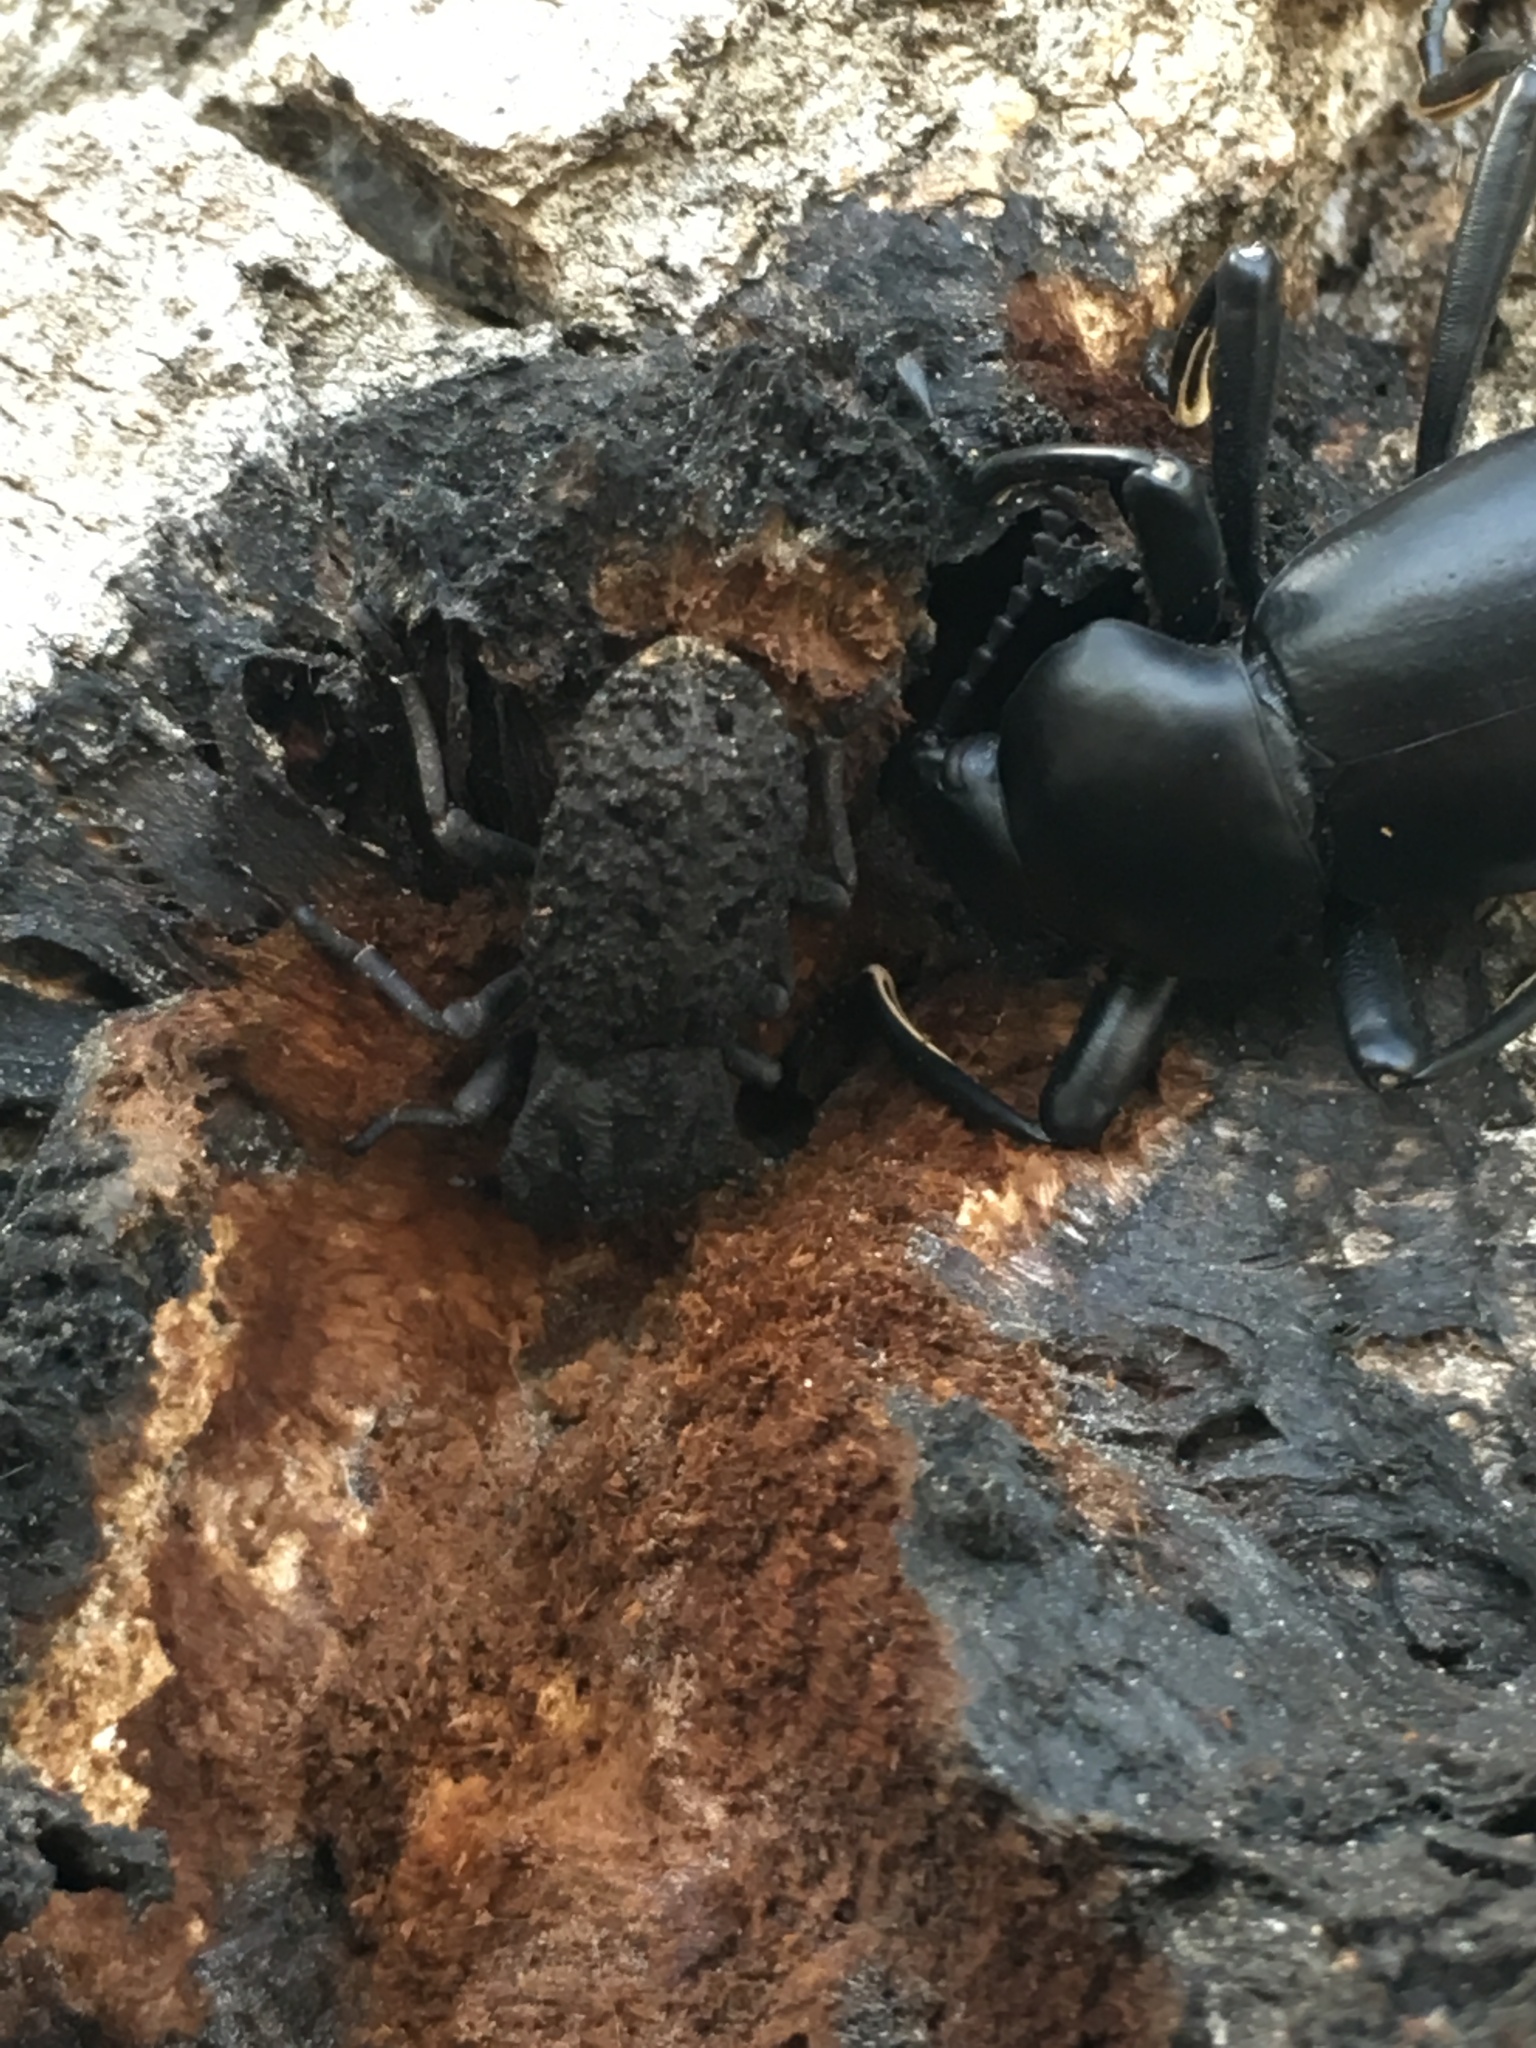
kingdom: Animalia
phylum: Arthropoda
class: Insecta
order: Coleoptera
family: Zopheridae
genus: Phloeodes
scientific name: Phloeodes diabolicus
